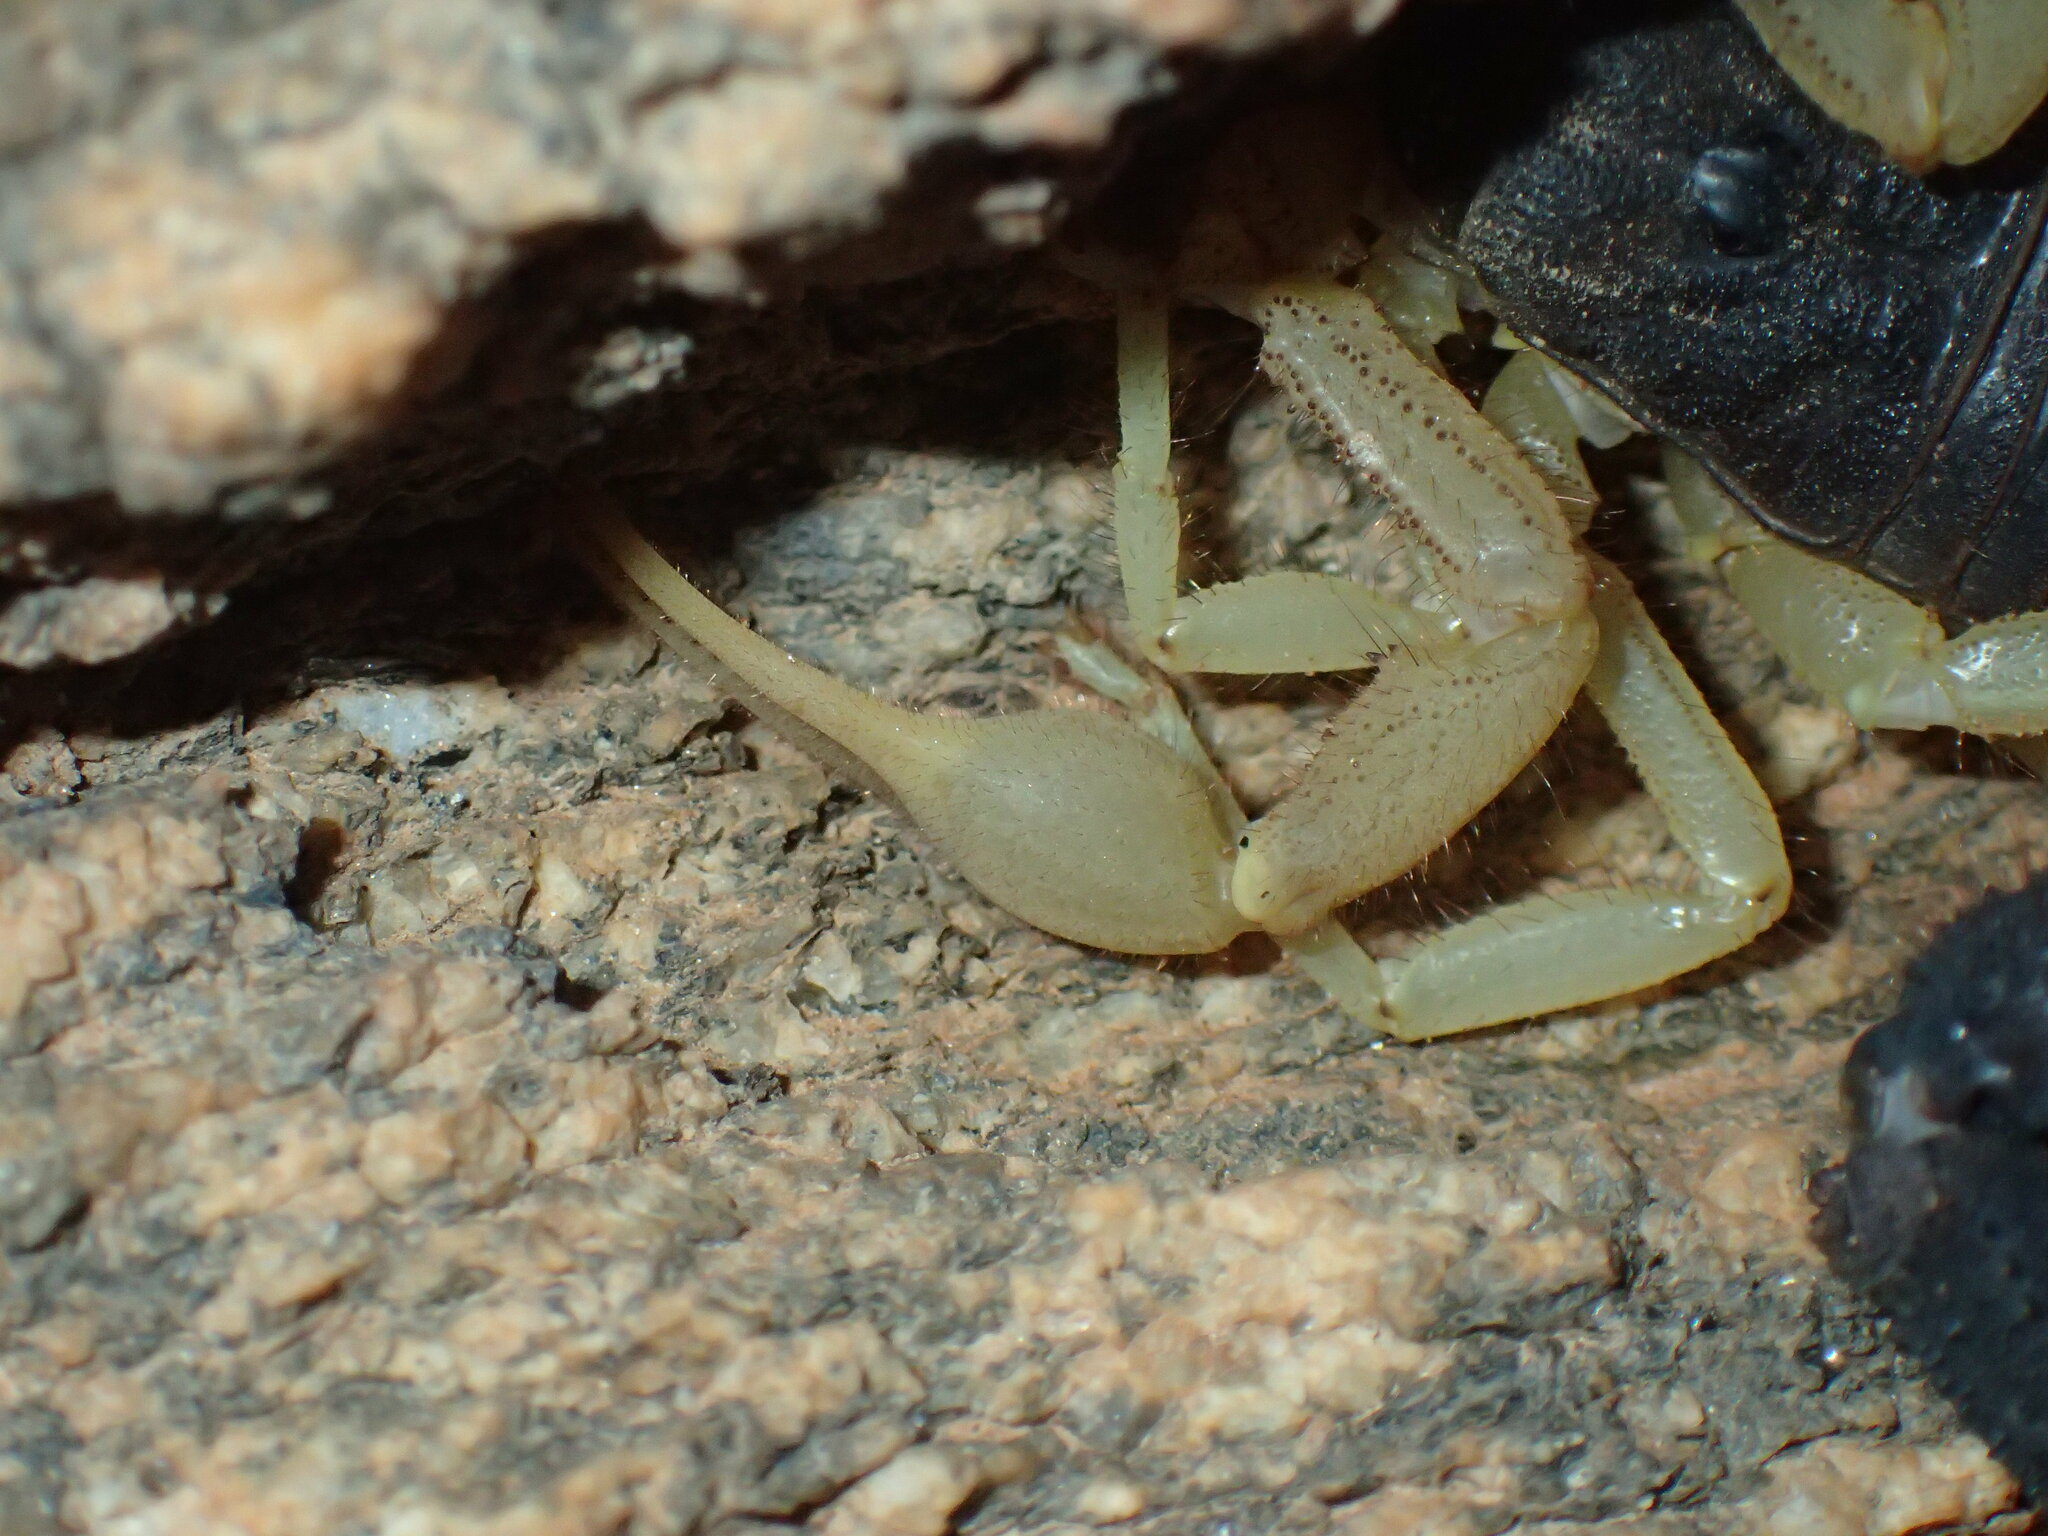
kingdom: Animalia
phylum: Arthropoda
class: Arachnida
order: Scorpiones
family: Buthidae
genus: Parabuthus
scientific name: Parabuthus schlechteri
